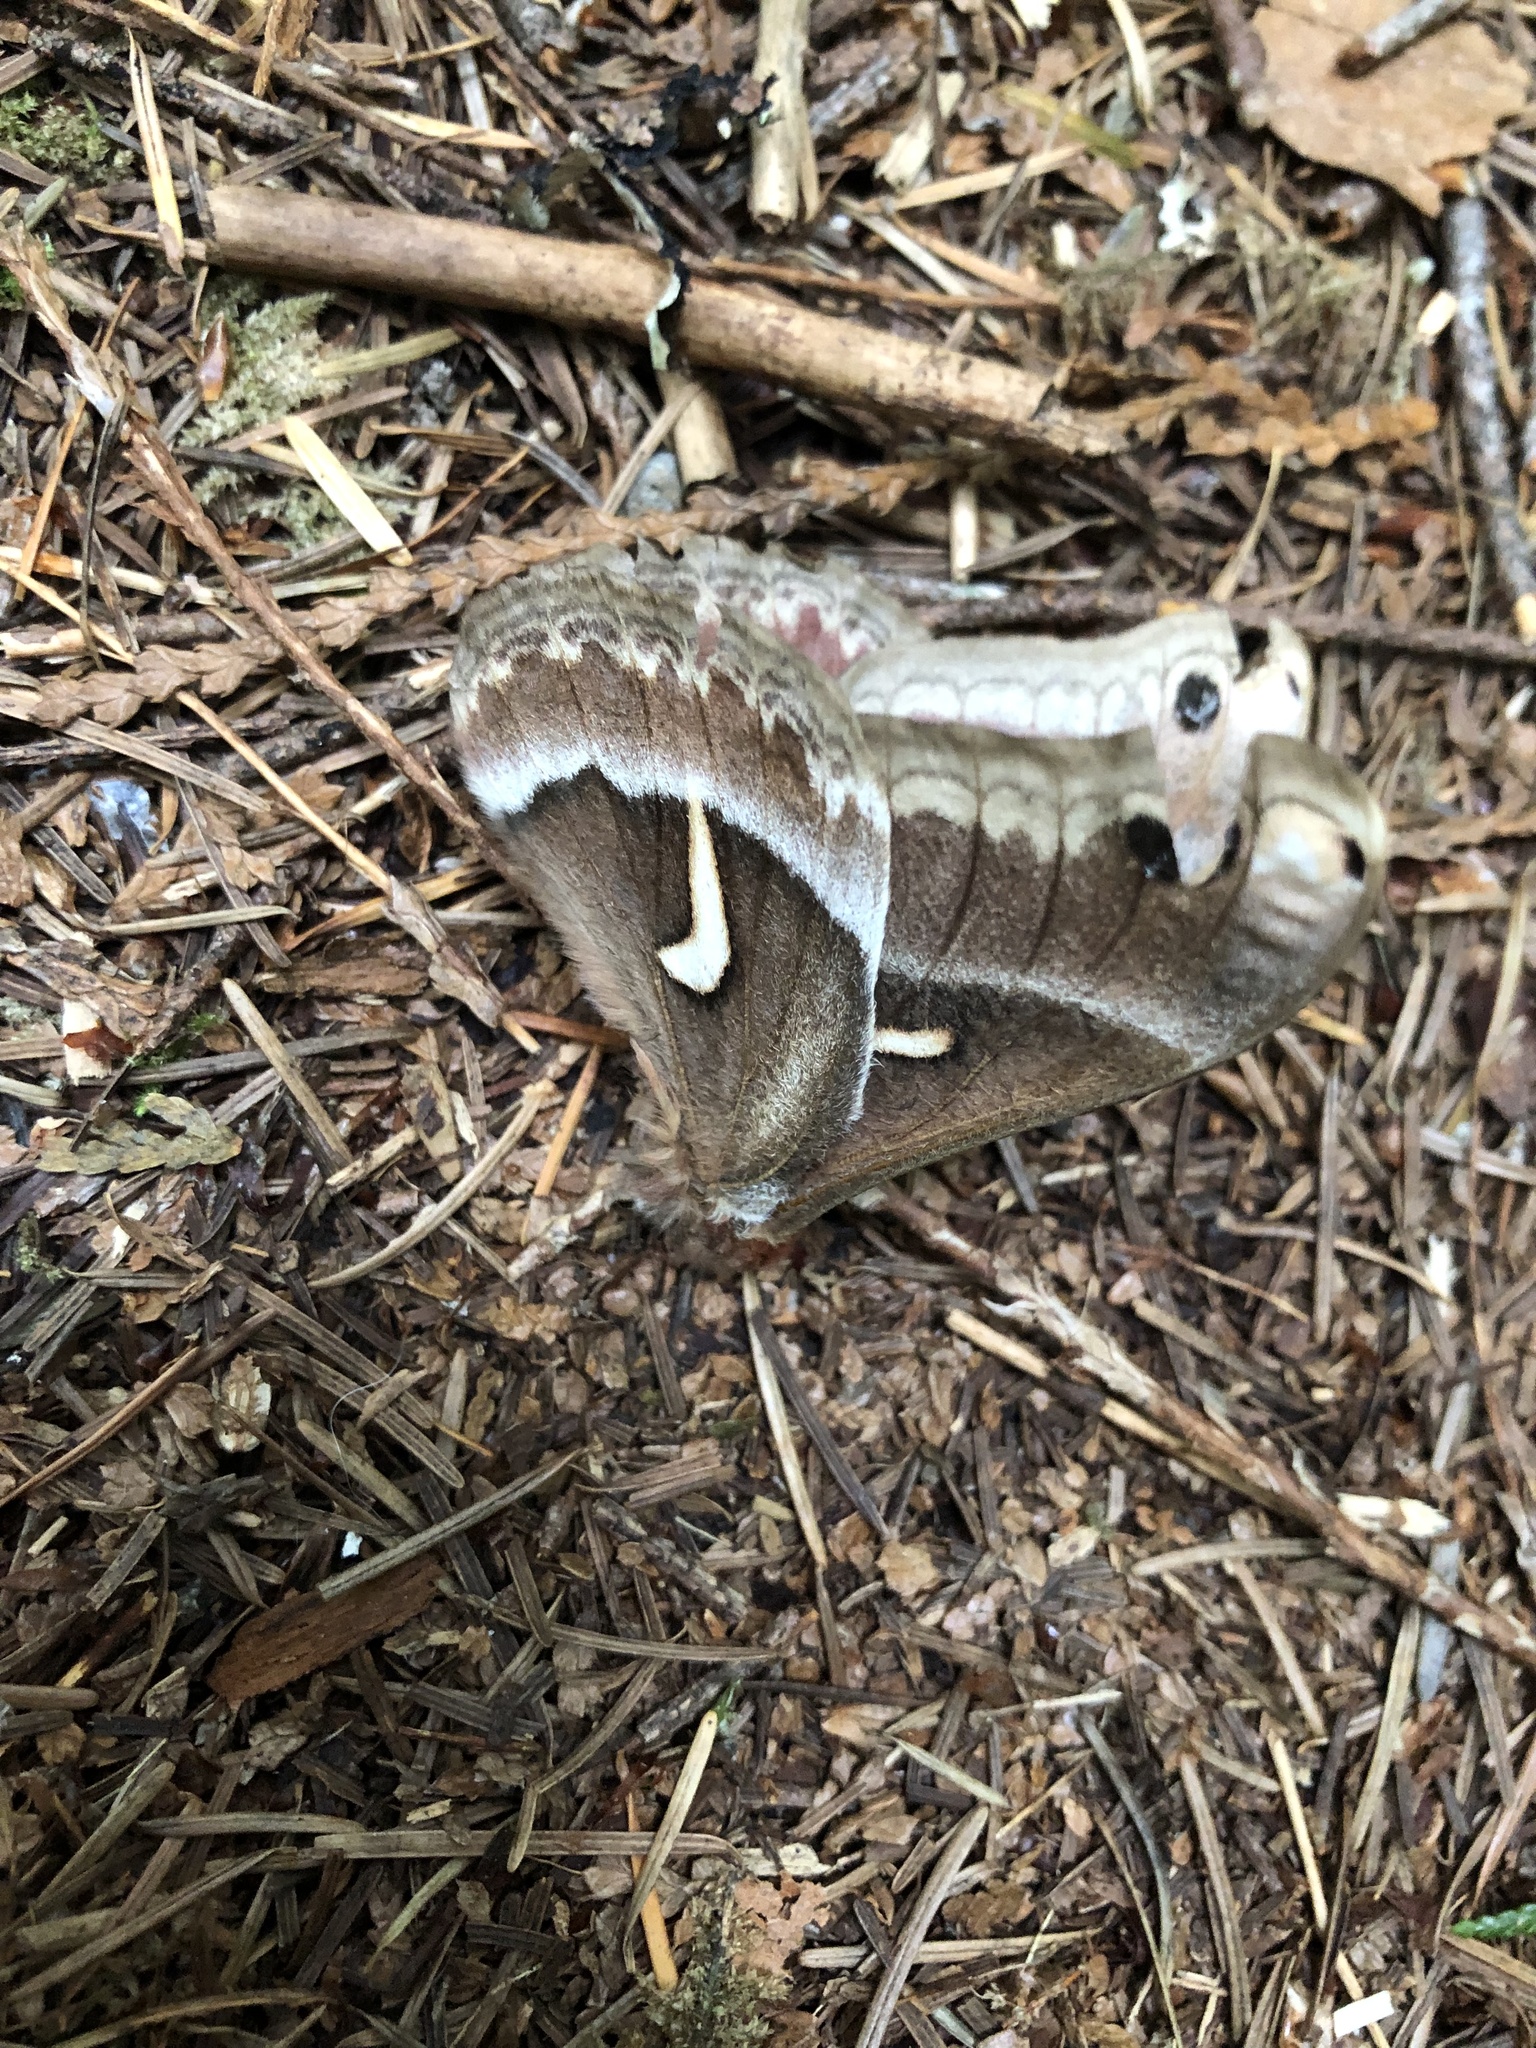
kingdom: Animalia
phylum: Arthropoda
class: Insecta
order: Lepidoptera
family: Saturniidae
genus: Hyalophora
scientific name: Hyalophora euryalus
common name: Ceanothus silkmoth
